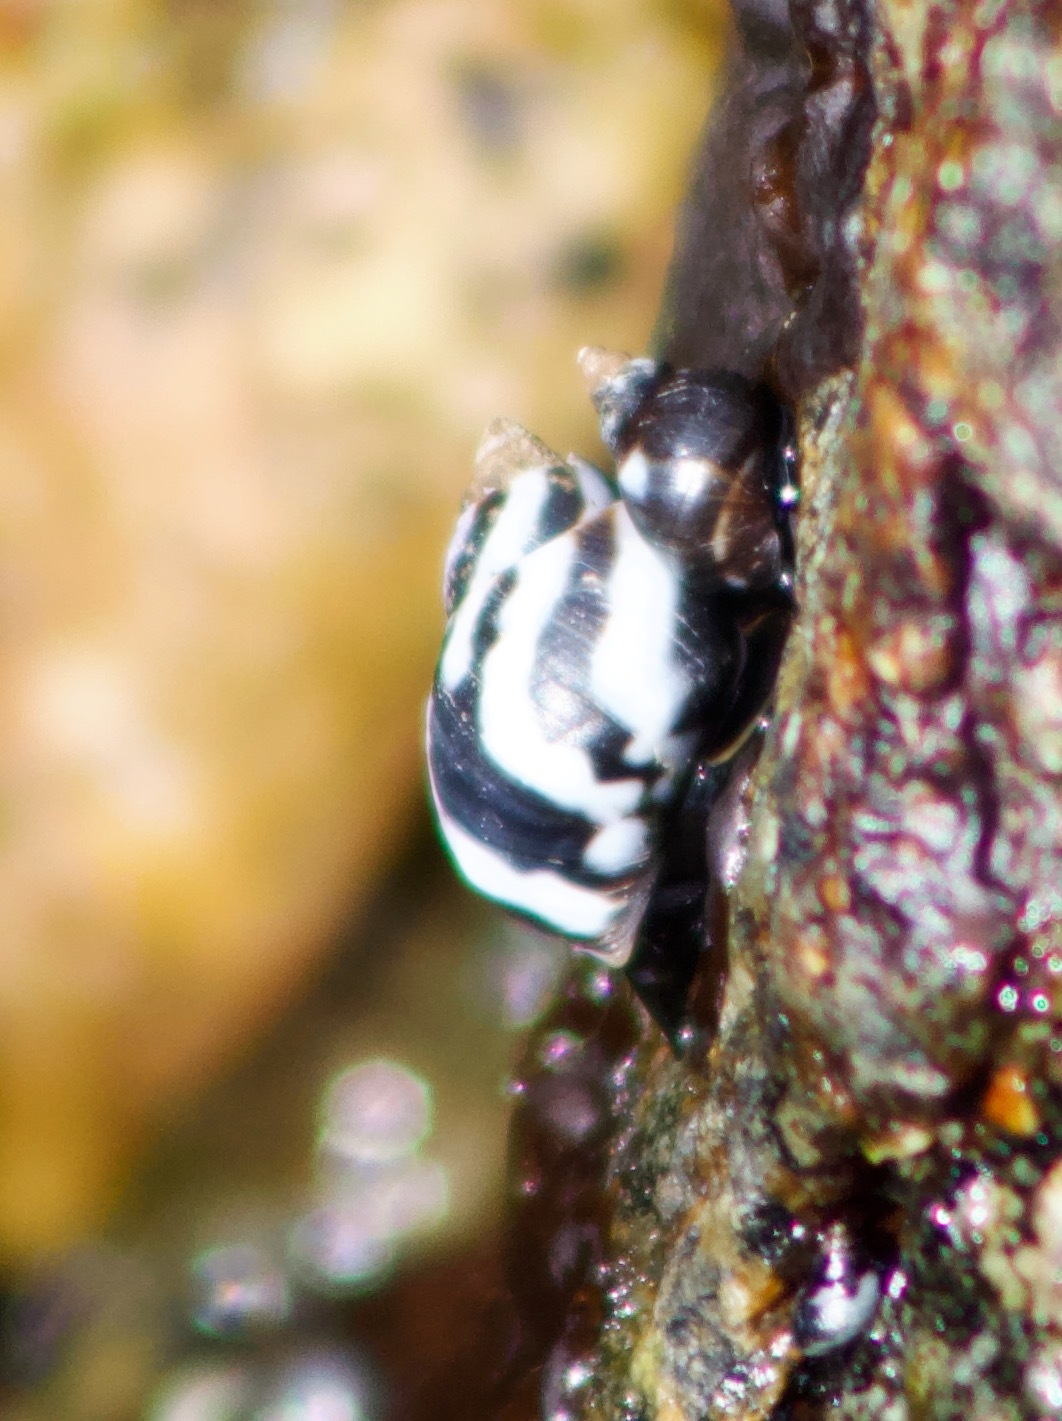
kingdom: Animalia
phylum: Mollusca
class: Gastropoda
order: Littorinimorpha
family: Littorinidae
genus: Echinolittorina
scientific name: Echinolittorina peruviana
